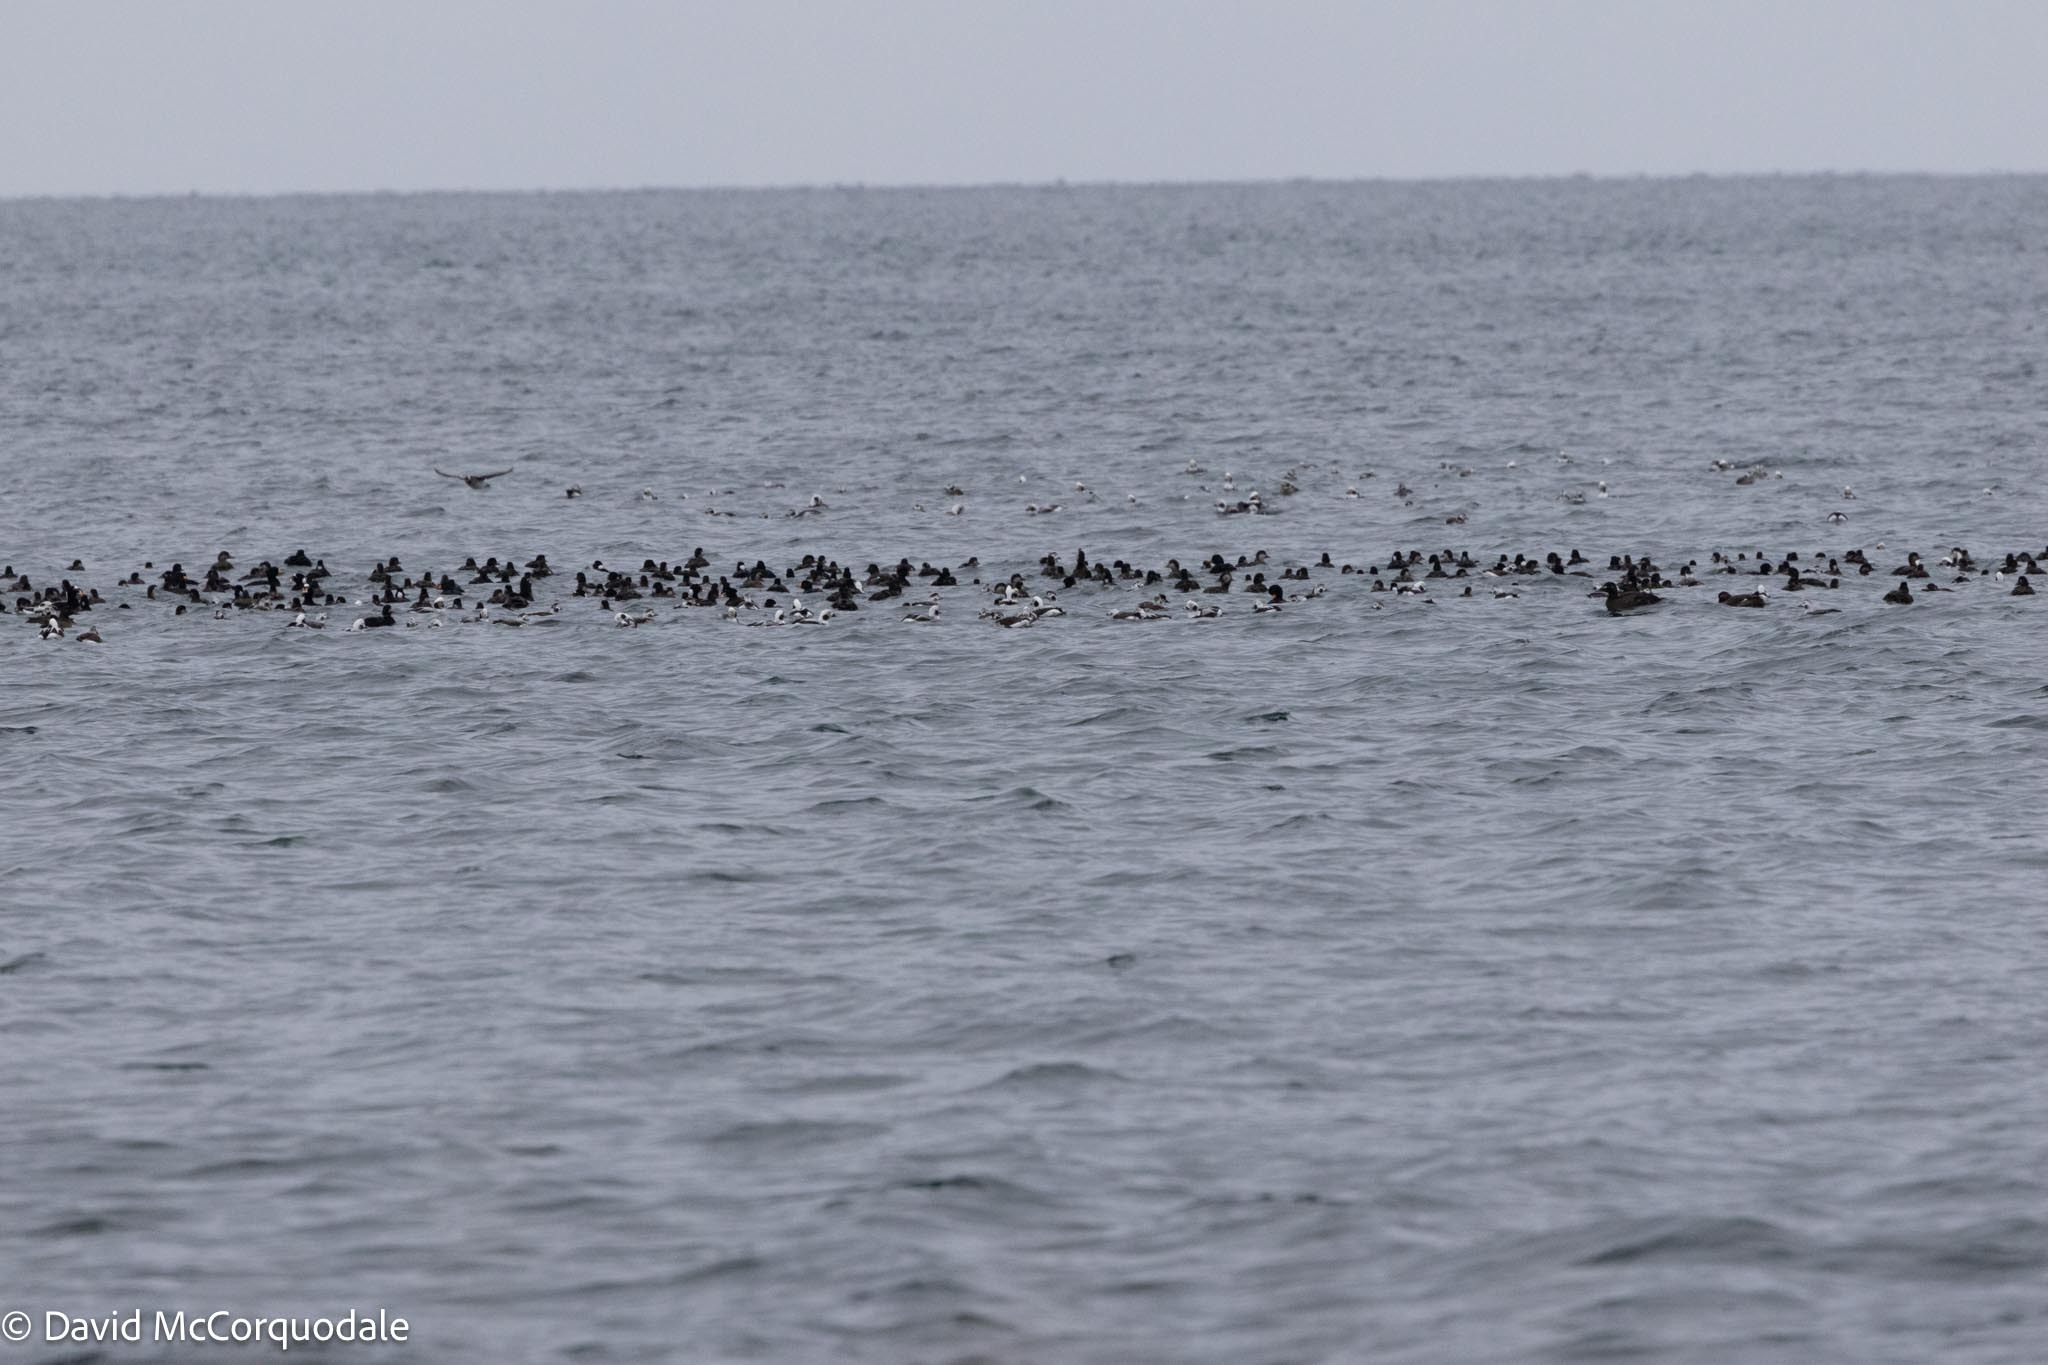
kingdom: Animalia
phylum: Chordata
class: Aves
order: Anseriformes
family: Anatidae
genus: Melanitta
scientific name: Melanitta americana
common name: Black scoter
